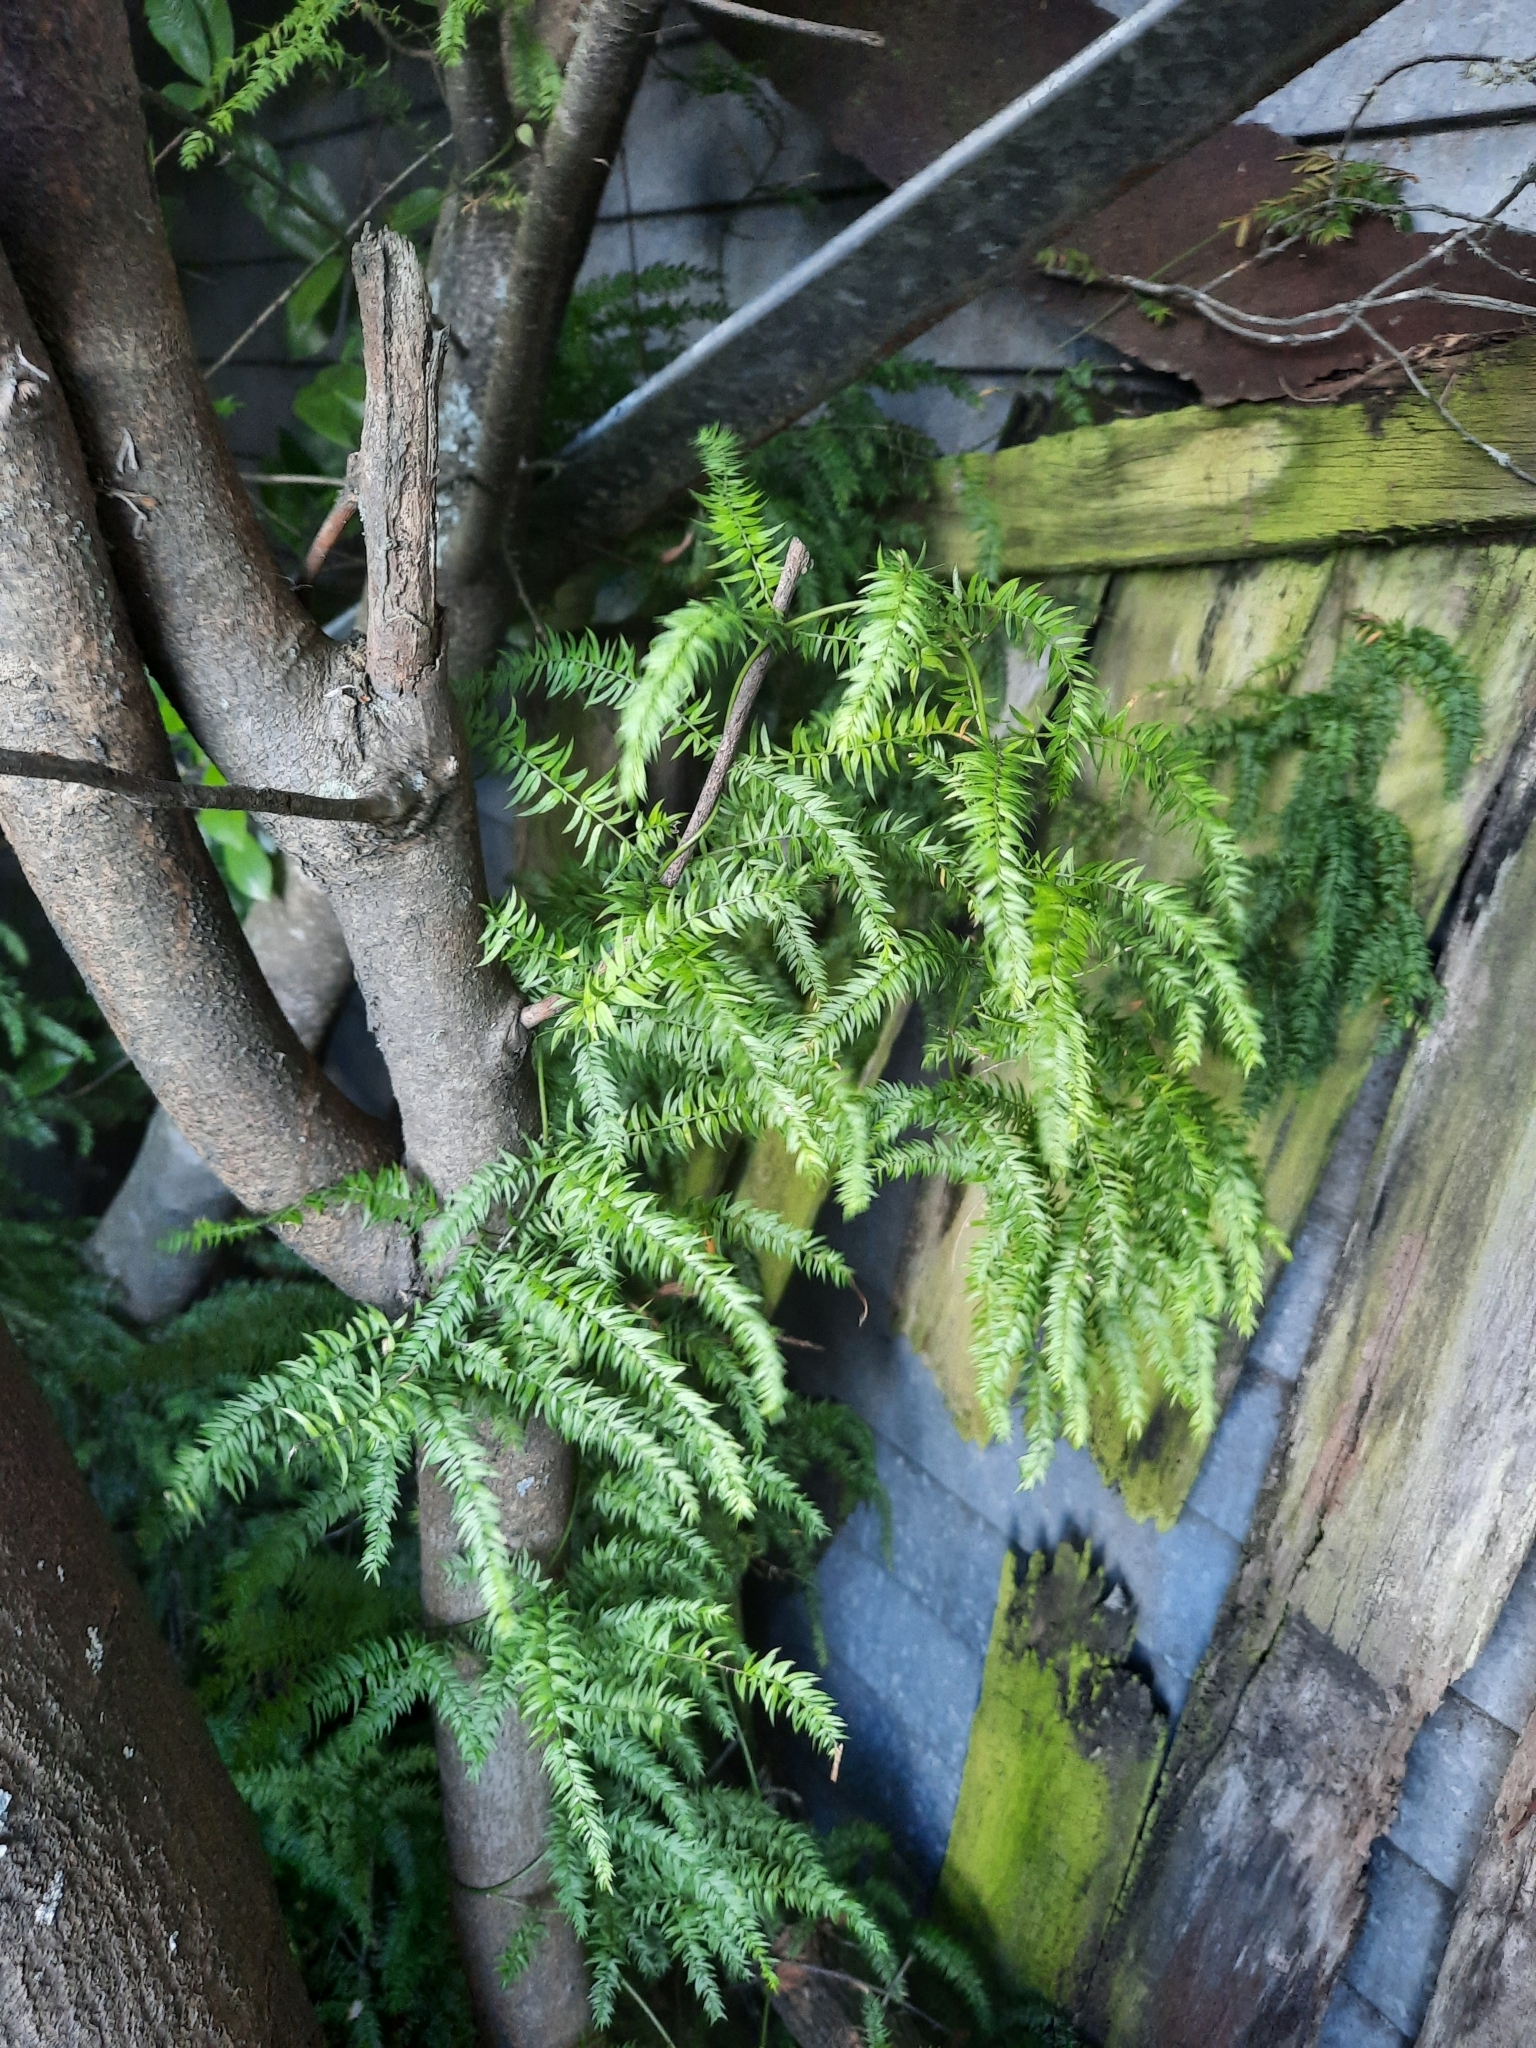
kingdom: Plantae
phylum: Tracheophyta
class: Liliopsida
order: Asparagales
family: Asparagaceae
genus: Asparagus
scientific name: Asparagus scandens
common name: Asparagus-fern
